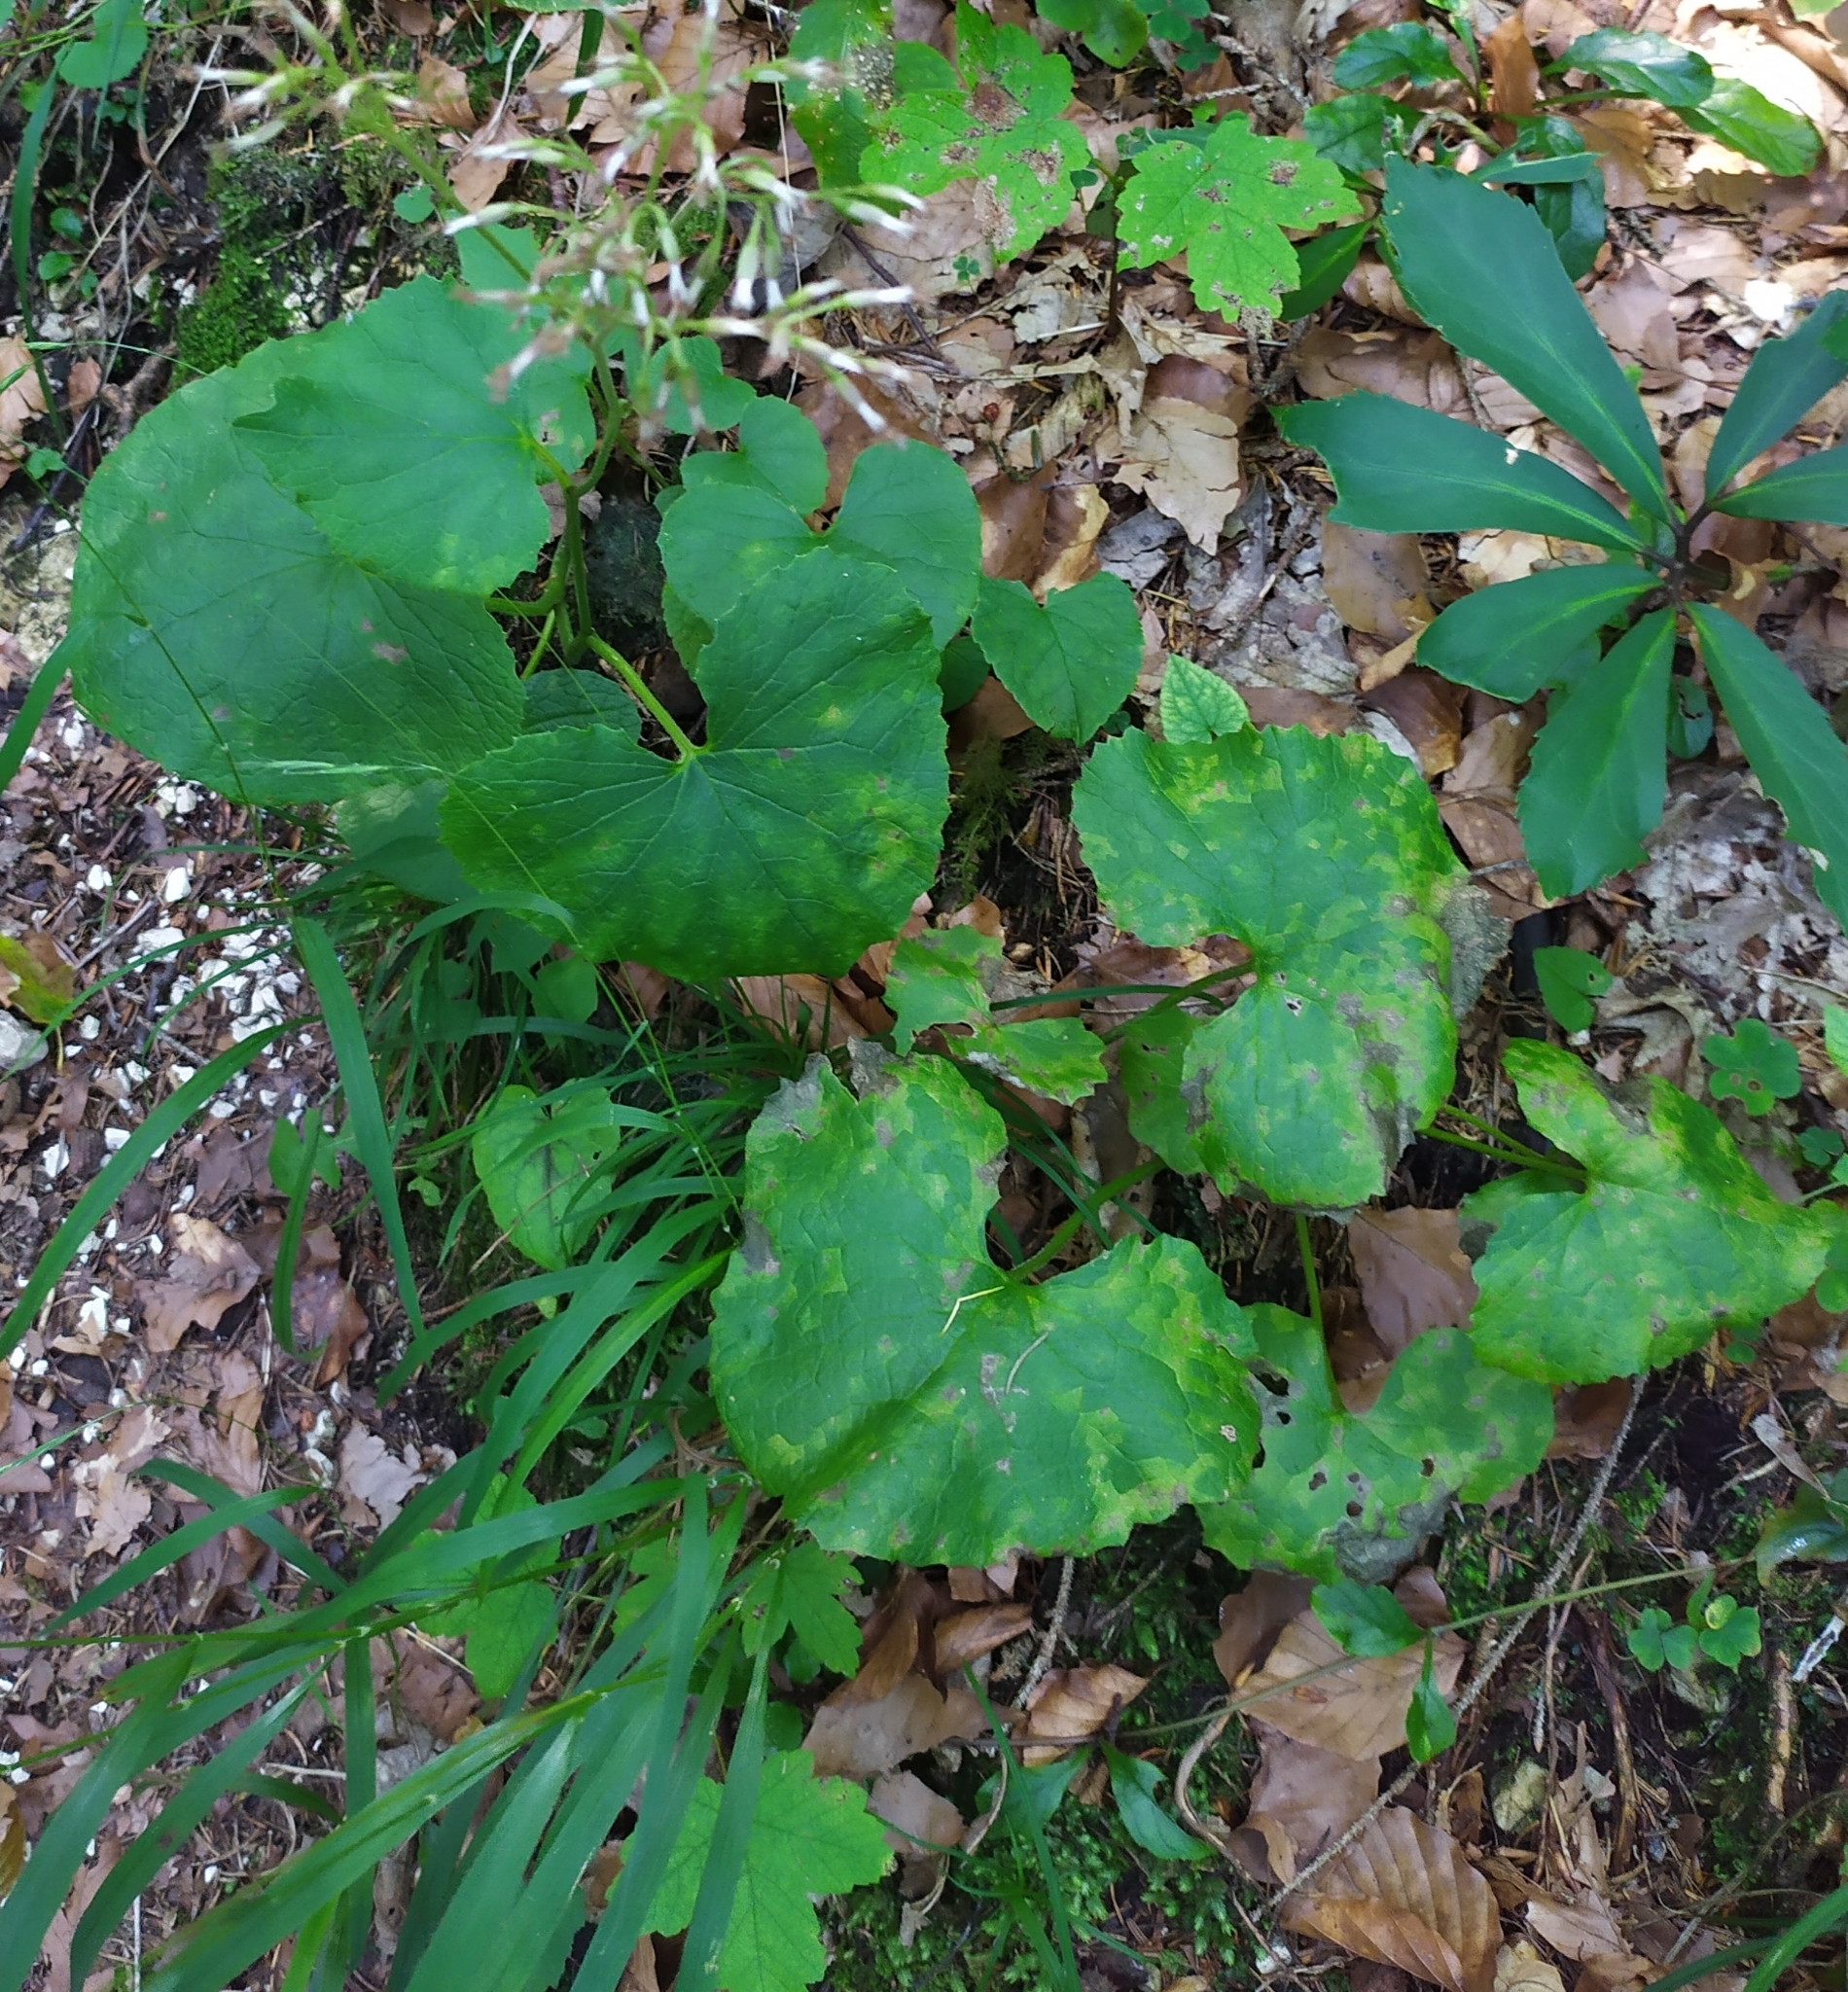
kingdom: Plantae
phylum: Tracheophyta
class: Magnoliopsida
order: Asterales
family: Asteraceae
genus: Adenostyles
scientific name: Adenostyles alpina
